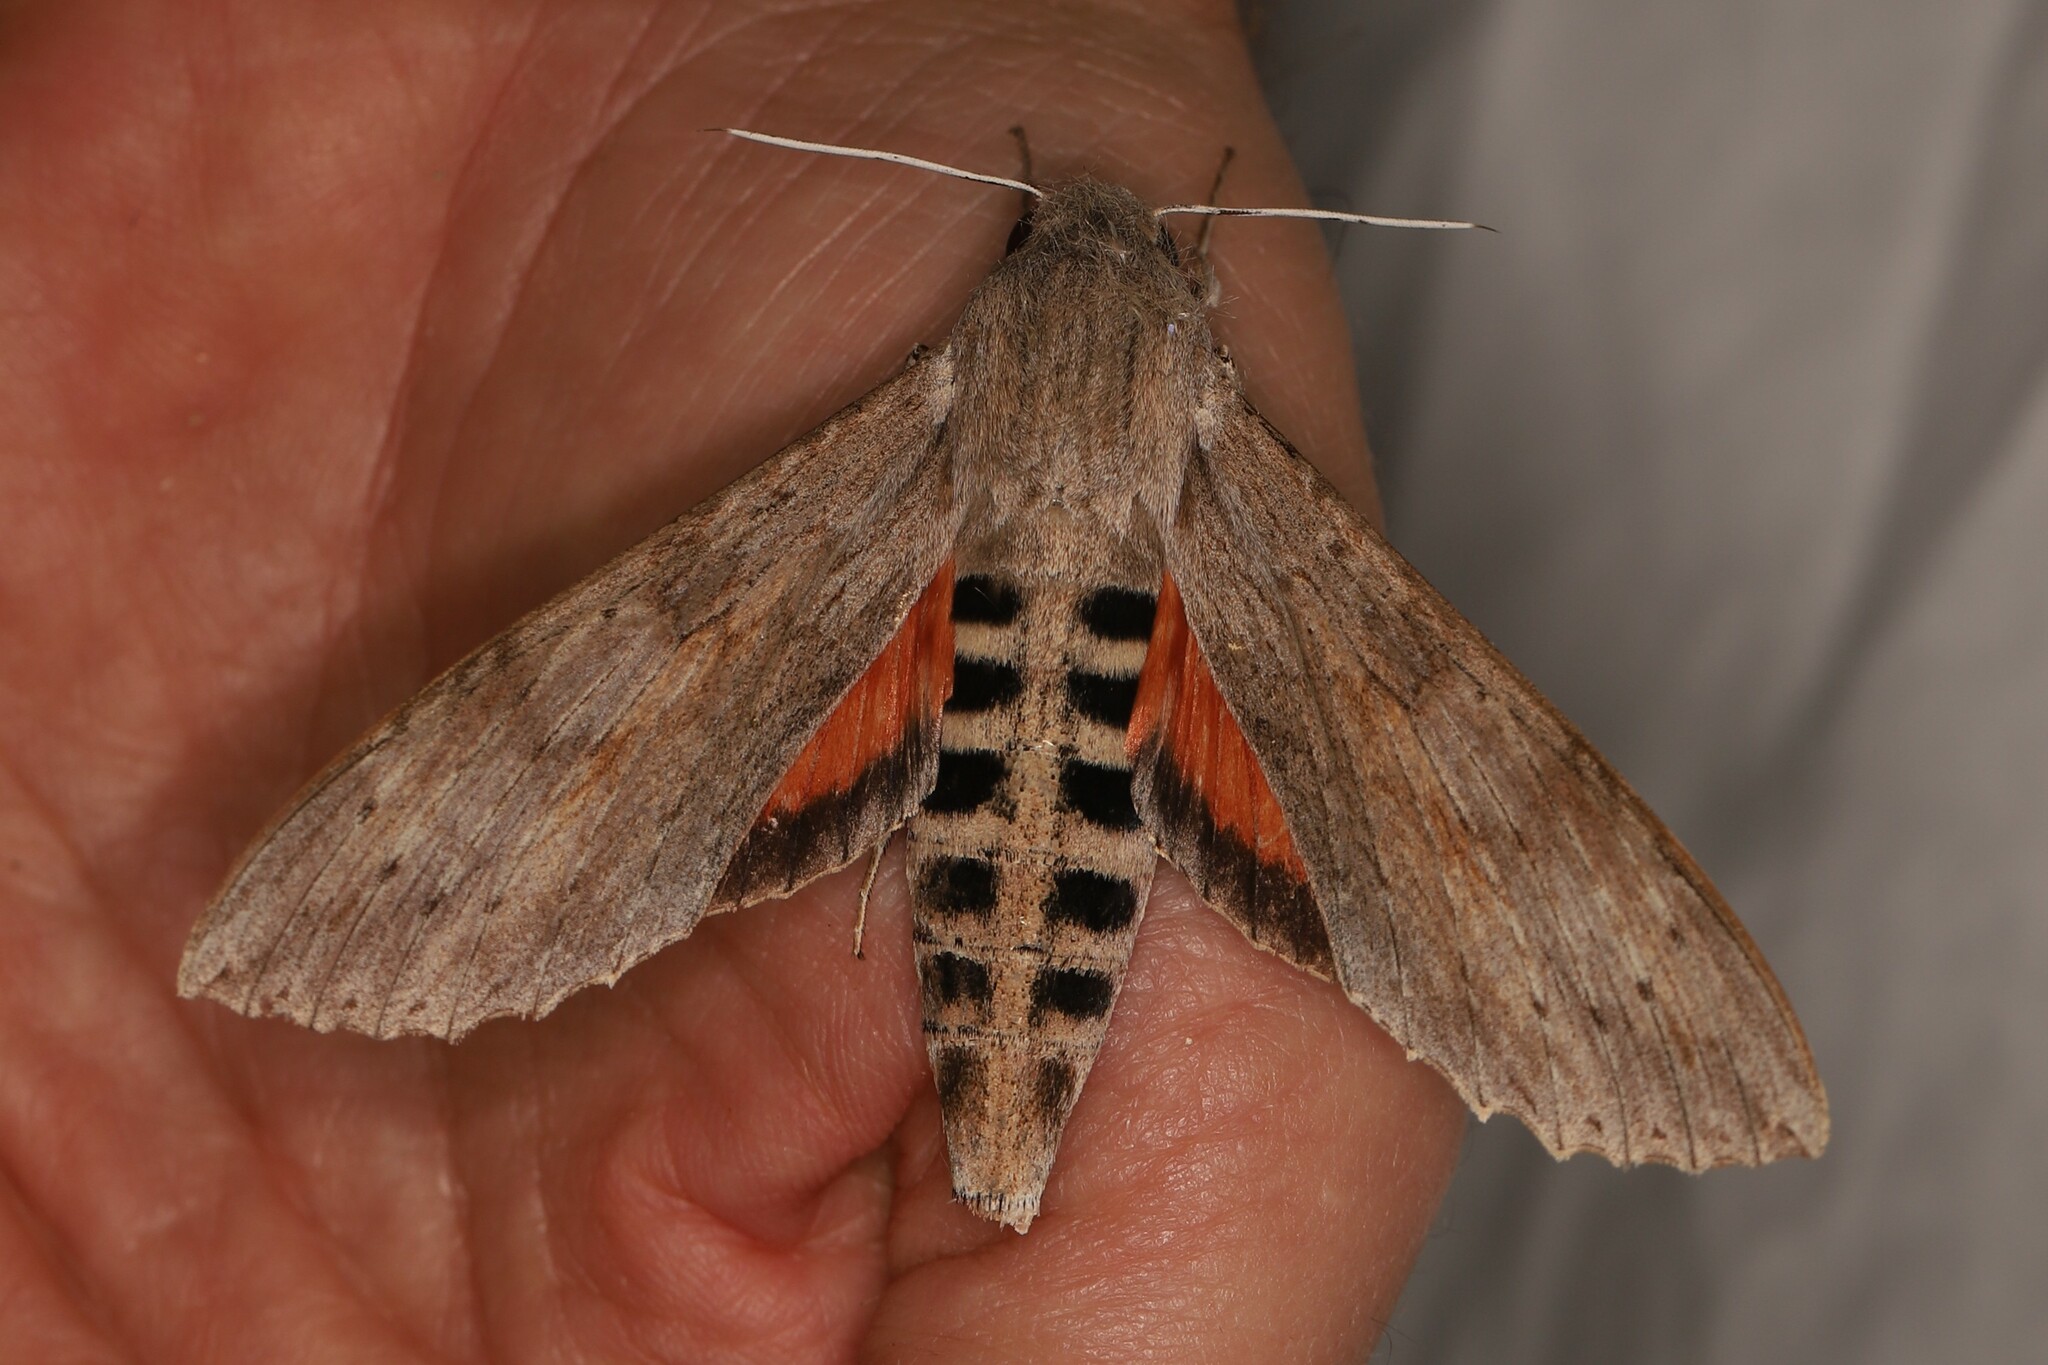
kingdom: Animalia
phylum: Arthropoda
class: Insecta
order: Lepidoptera
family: Sphingidae
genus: Erinnyis
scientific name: Erinnyis ello
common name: Ello sphinx
